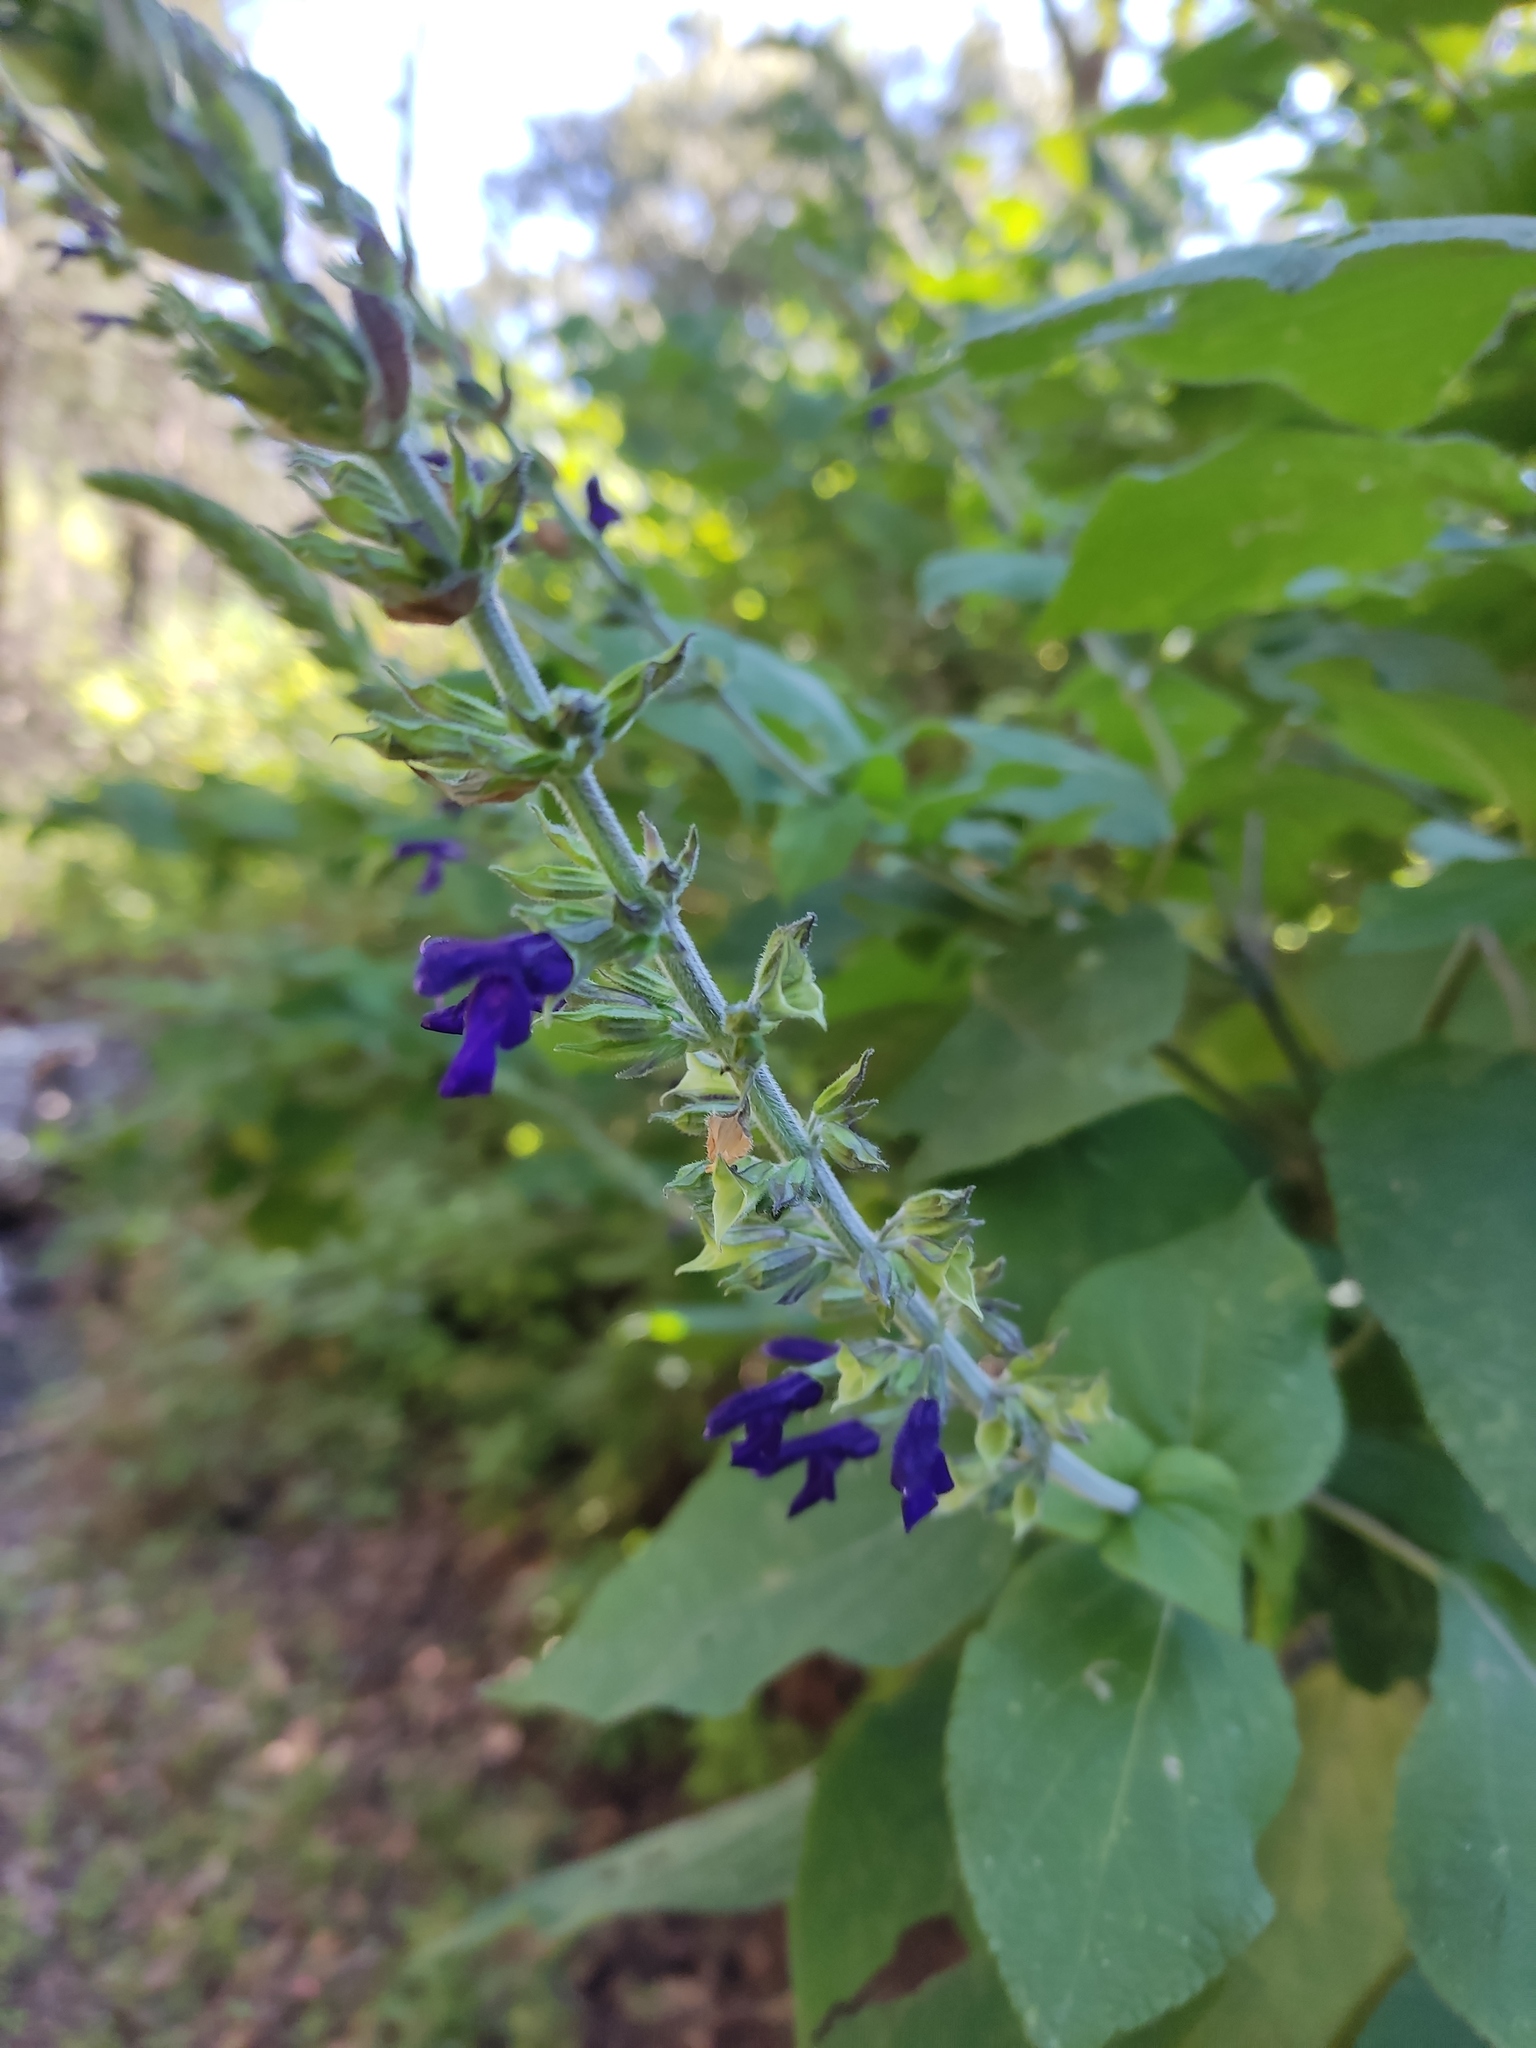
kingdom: Plantae
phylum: Tracheophyta
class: Magnoliopsida
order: Lamiales
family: Lamiaceae
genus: Salvia
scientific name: Salvia mexicana
